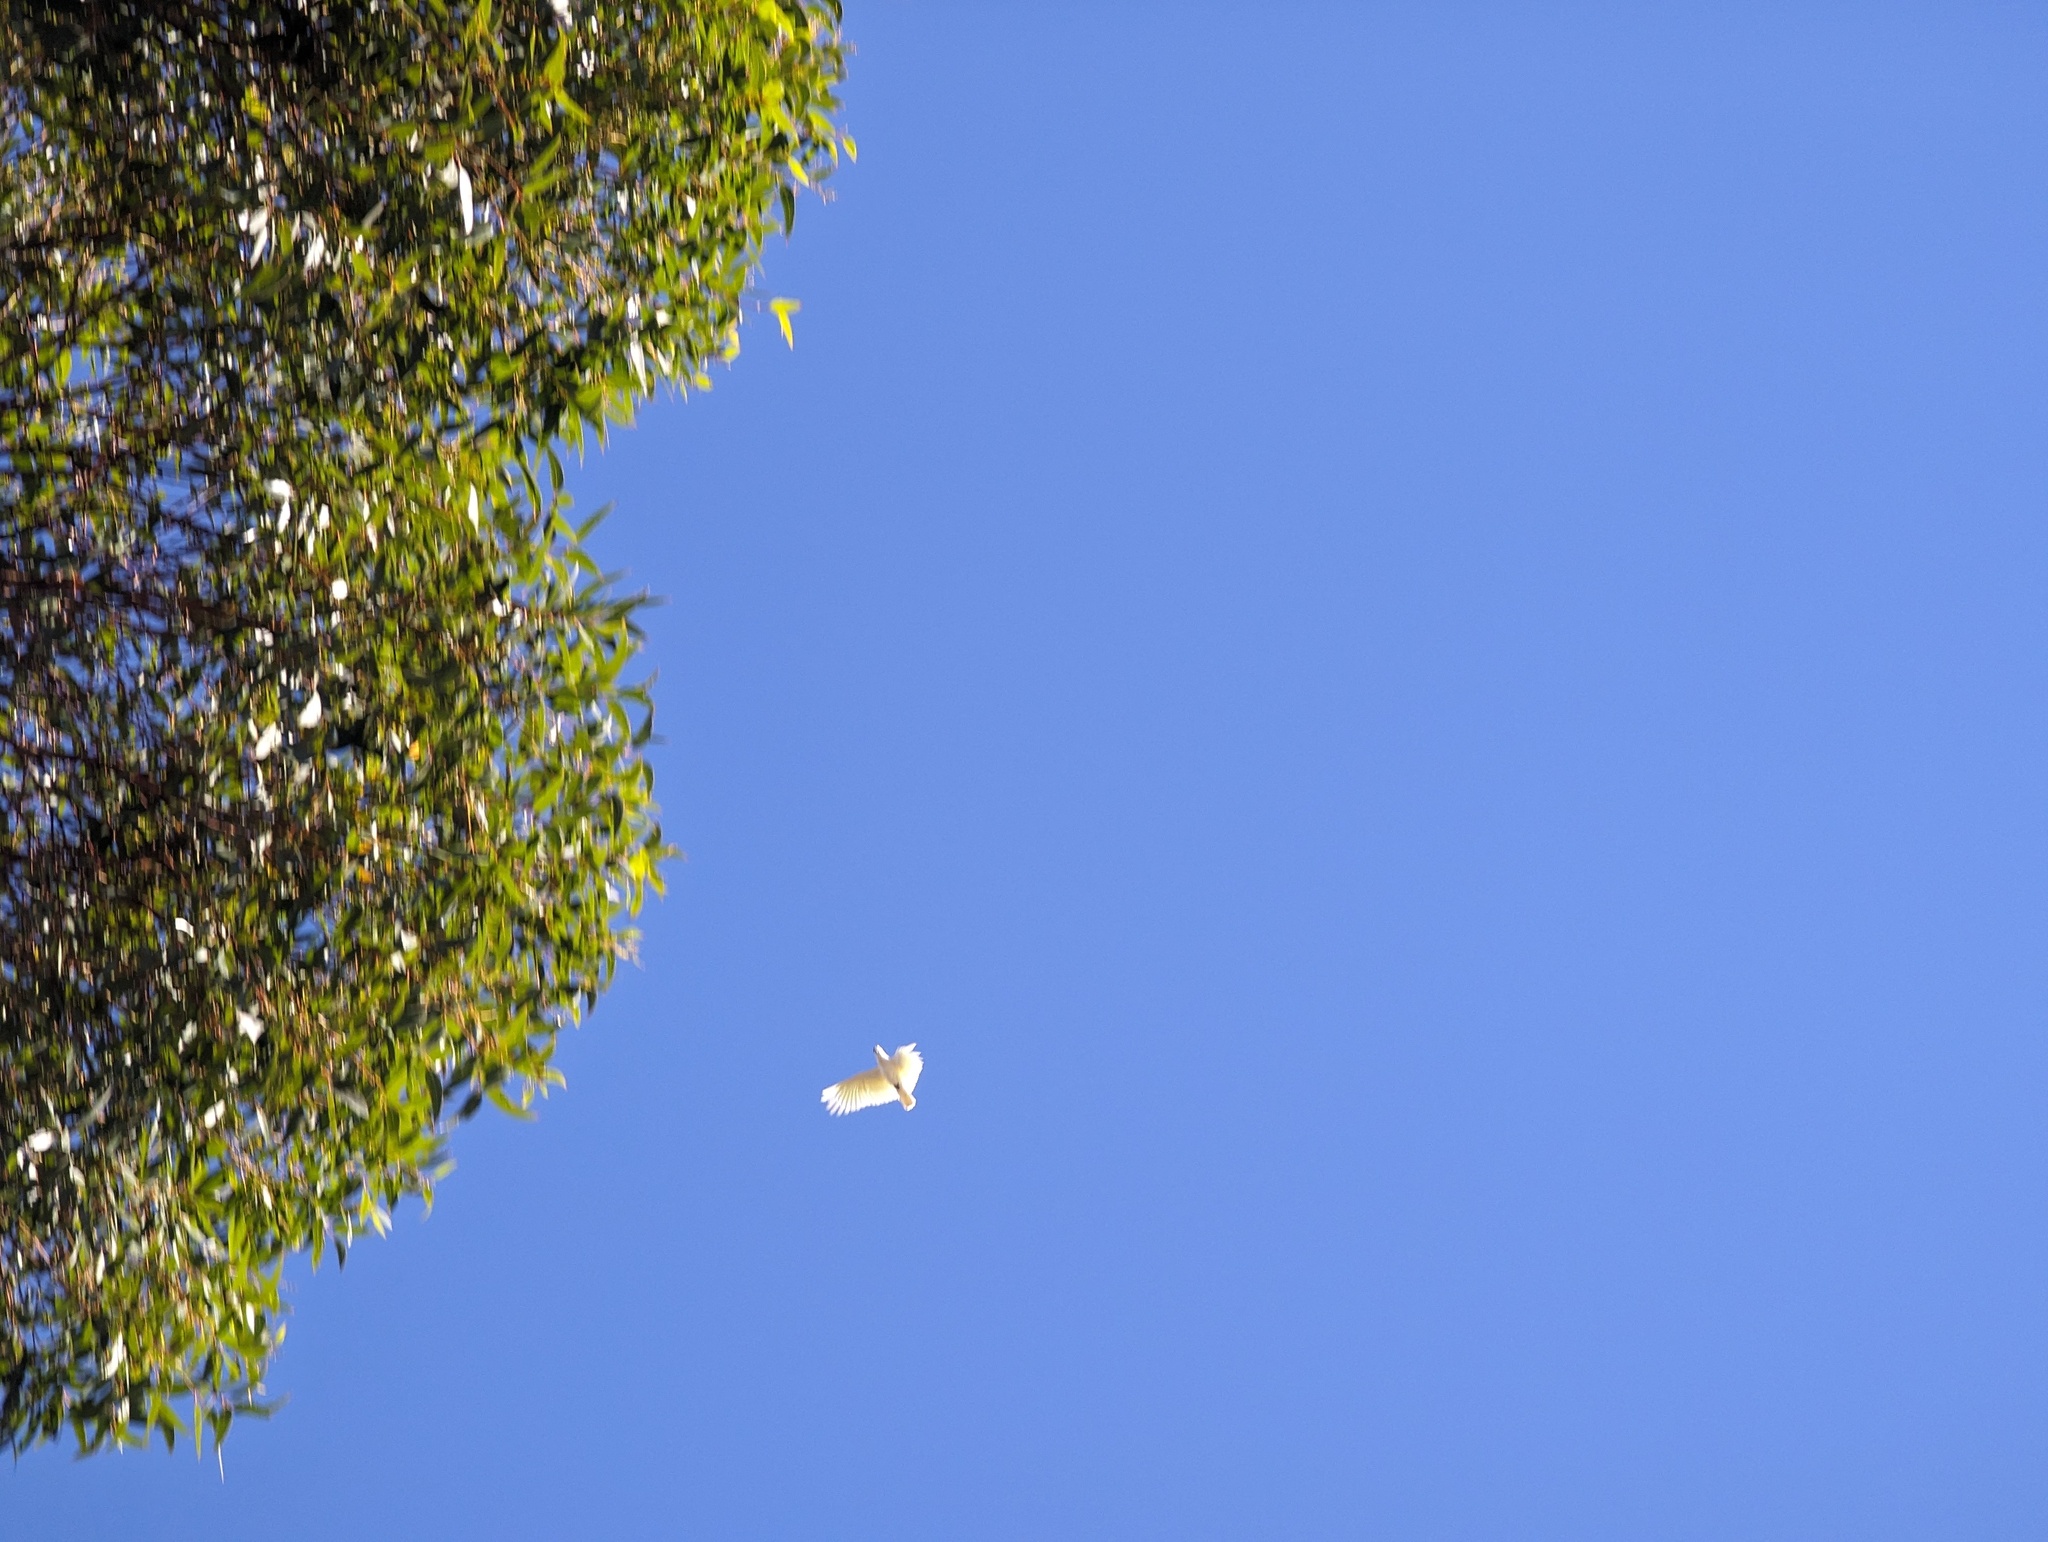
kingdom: Animalia
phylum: Chordata
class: Aves
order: Psittaciformes
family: Psittacidae
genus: Cacatua
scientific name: Cacatua galerita
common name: Sulphur-crested cockatoo
